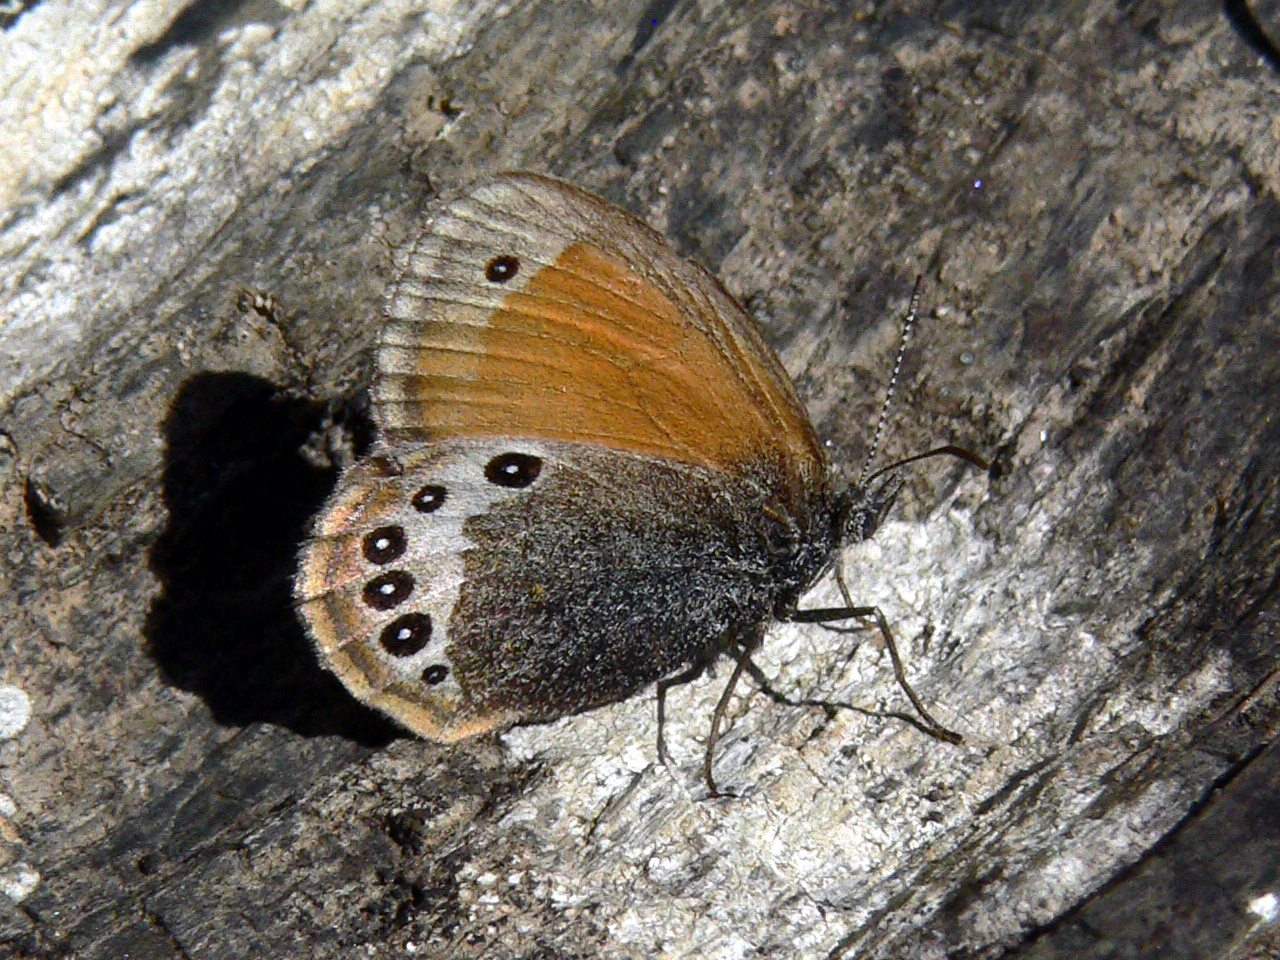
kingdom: Animalia
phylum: Arthropoda
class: Insecta
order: Lepidoptera
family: Nymphalidae
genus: Coenonympha
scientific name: Coenonympha
